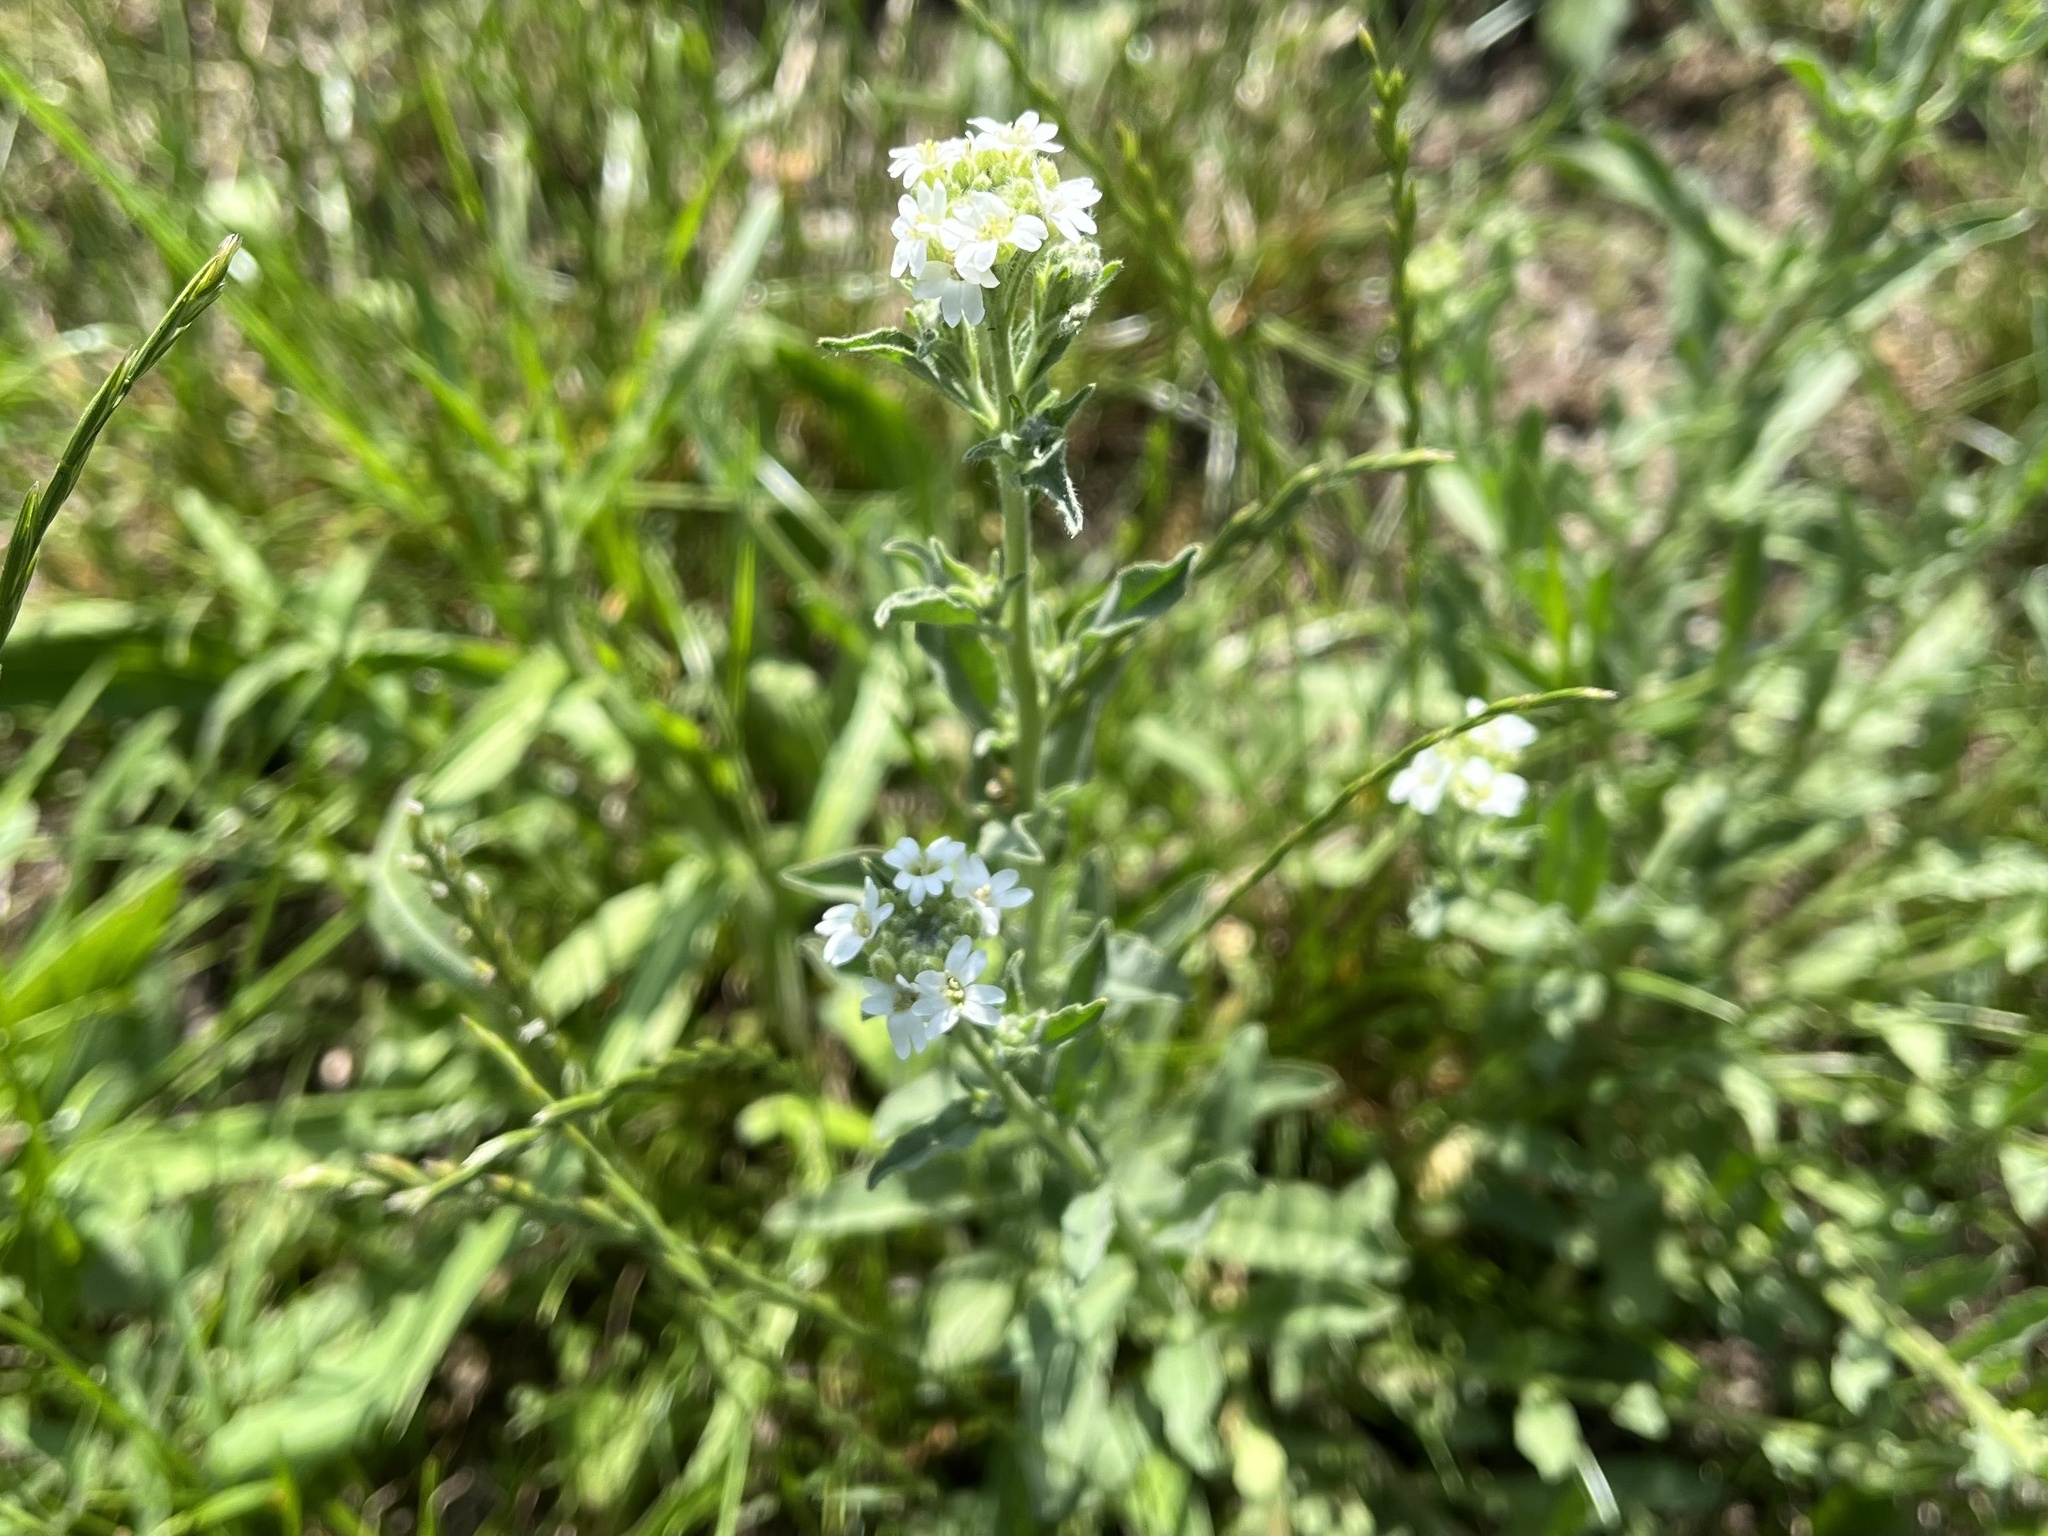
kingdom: Plantae
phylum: Tracheophyta
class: Magnoliopsida
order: Brassicales
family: Brassicaceae
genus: Berteroa
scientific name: Berteroa incana
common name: Hoary alison
